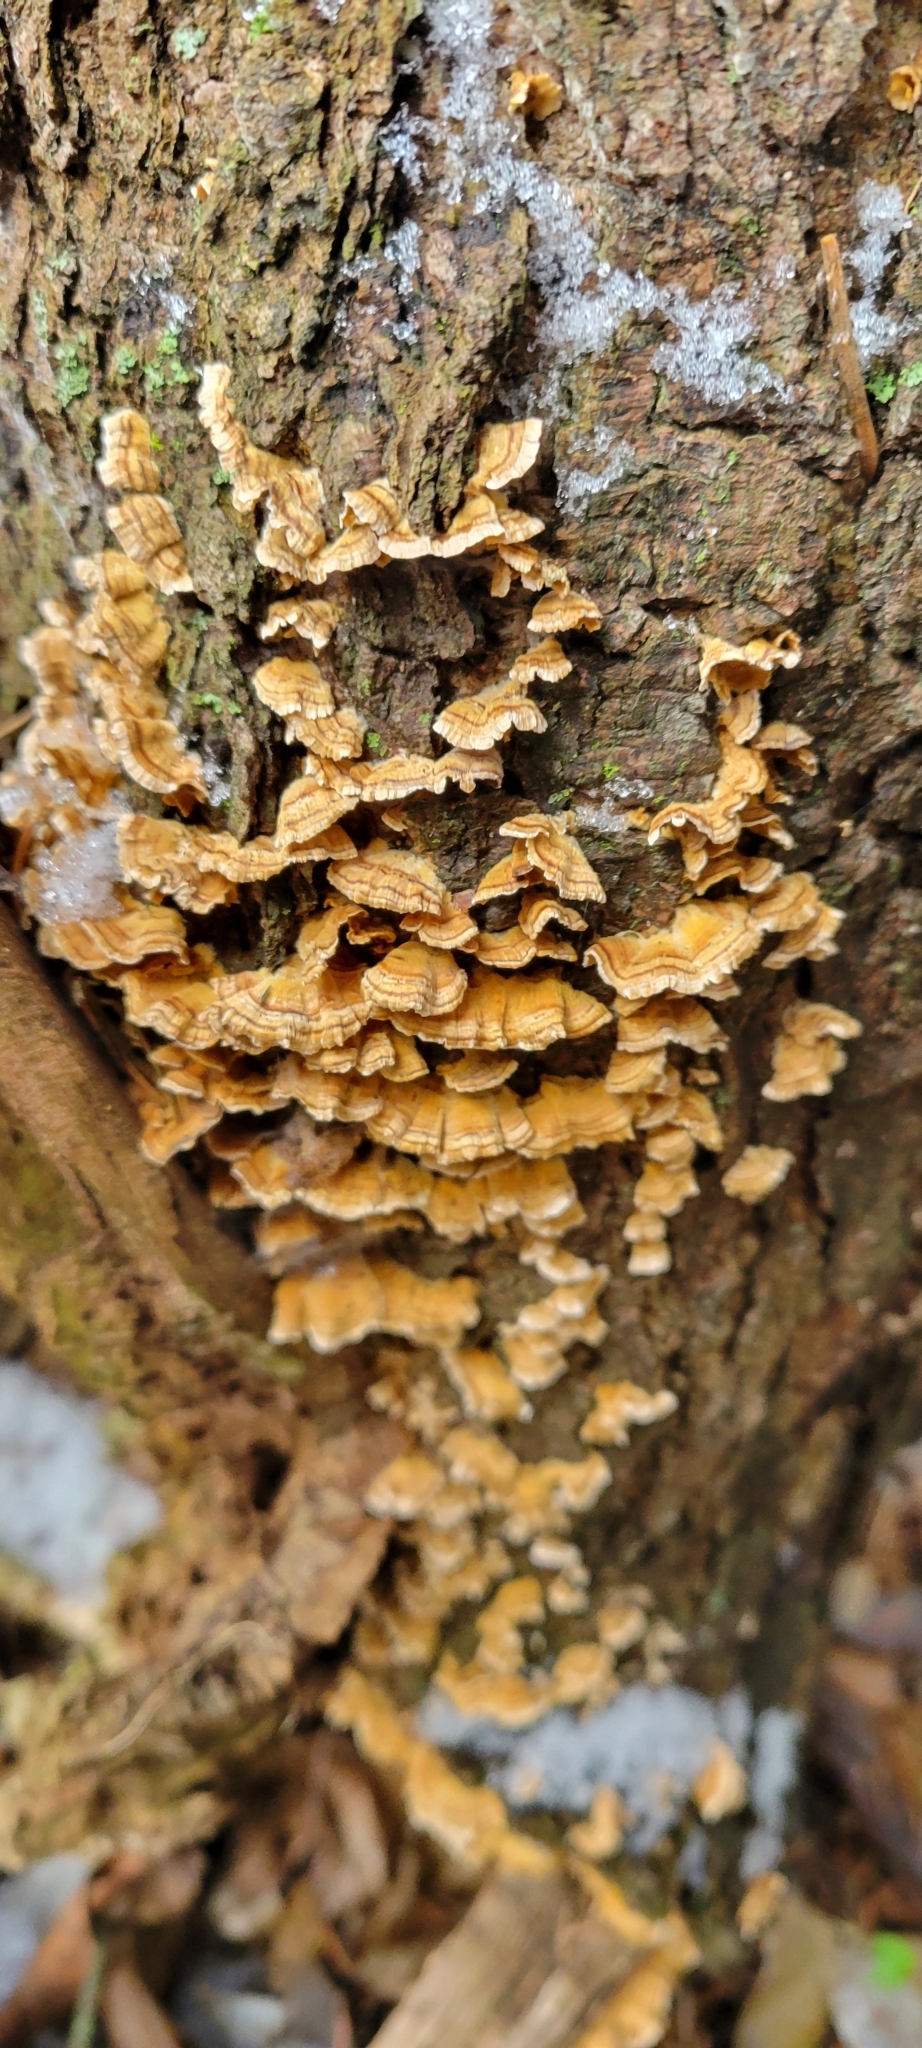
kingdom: Fungi
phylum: Basidiomycota
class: Agaricomycetes
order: Russulales
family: Stereaceae
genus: Stereum
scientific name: Stereum complicatum
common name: Crowded parchment
